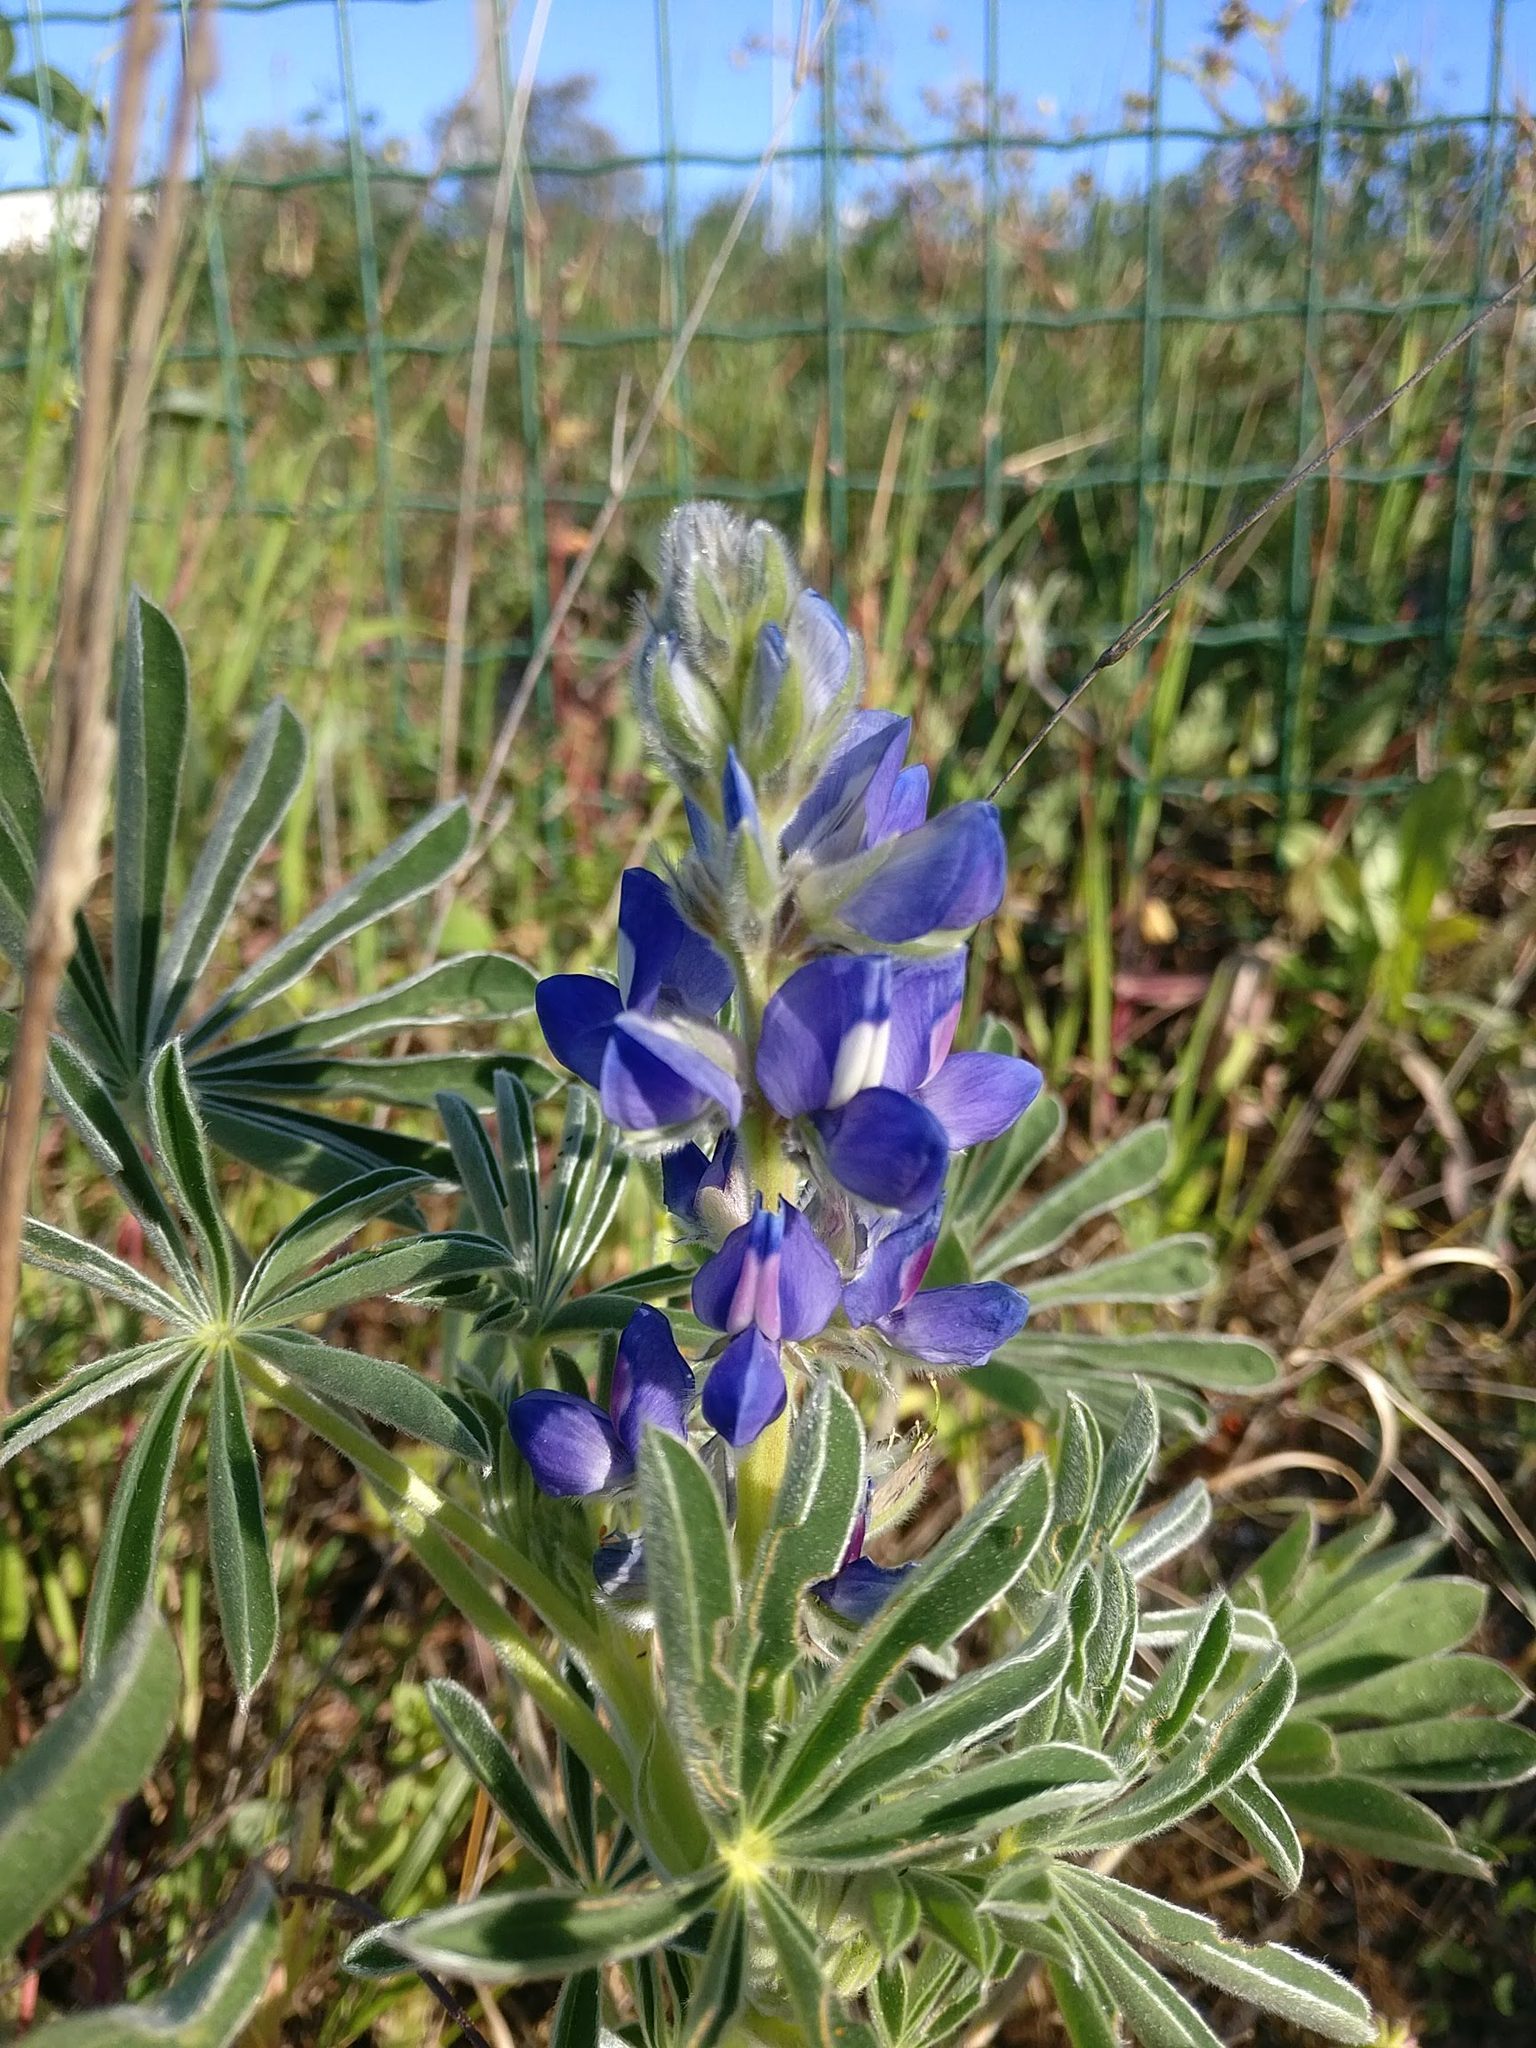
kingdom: Plantae
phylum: Tracheophyta
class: Magnoliopsida
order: Fabales
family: Fabaceae
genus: Lupinus
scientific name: Lupinus cosentinii
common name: Hairy blue lupin
